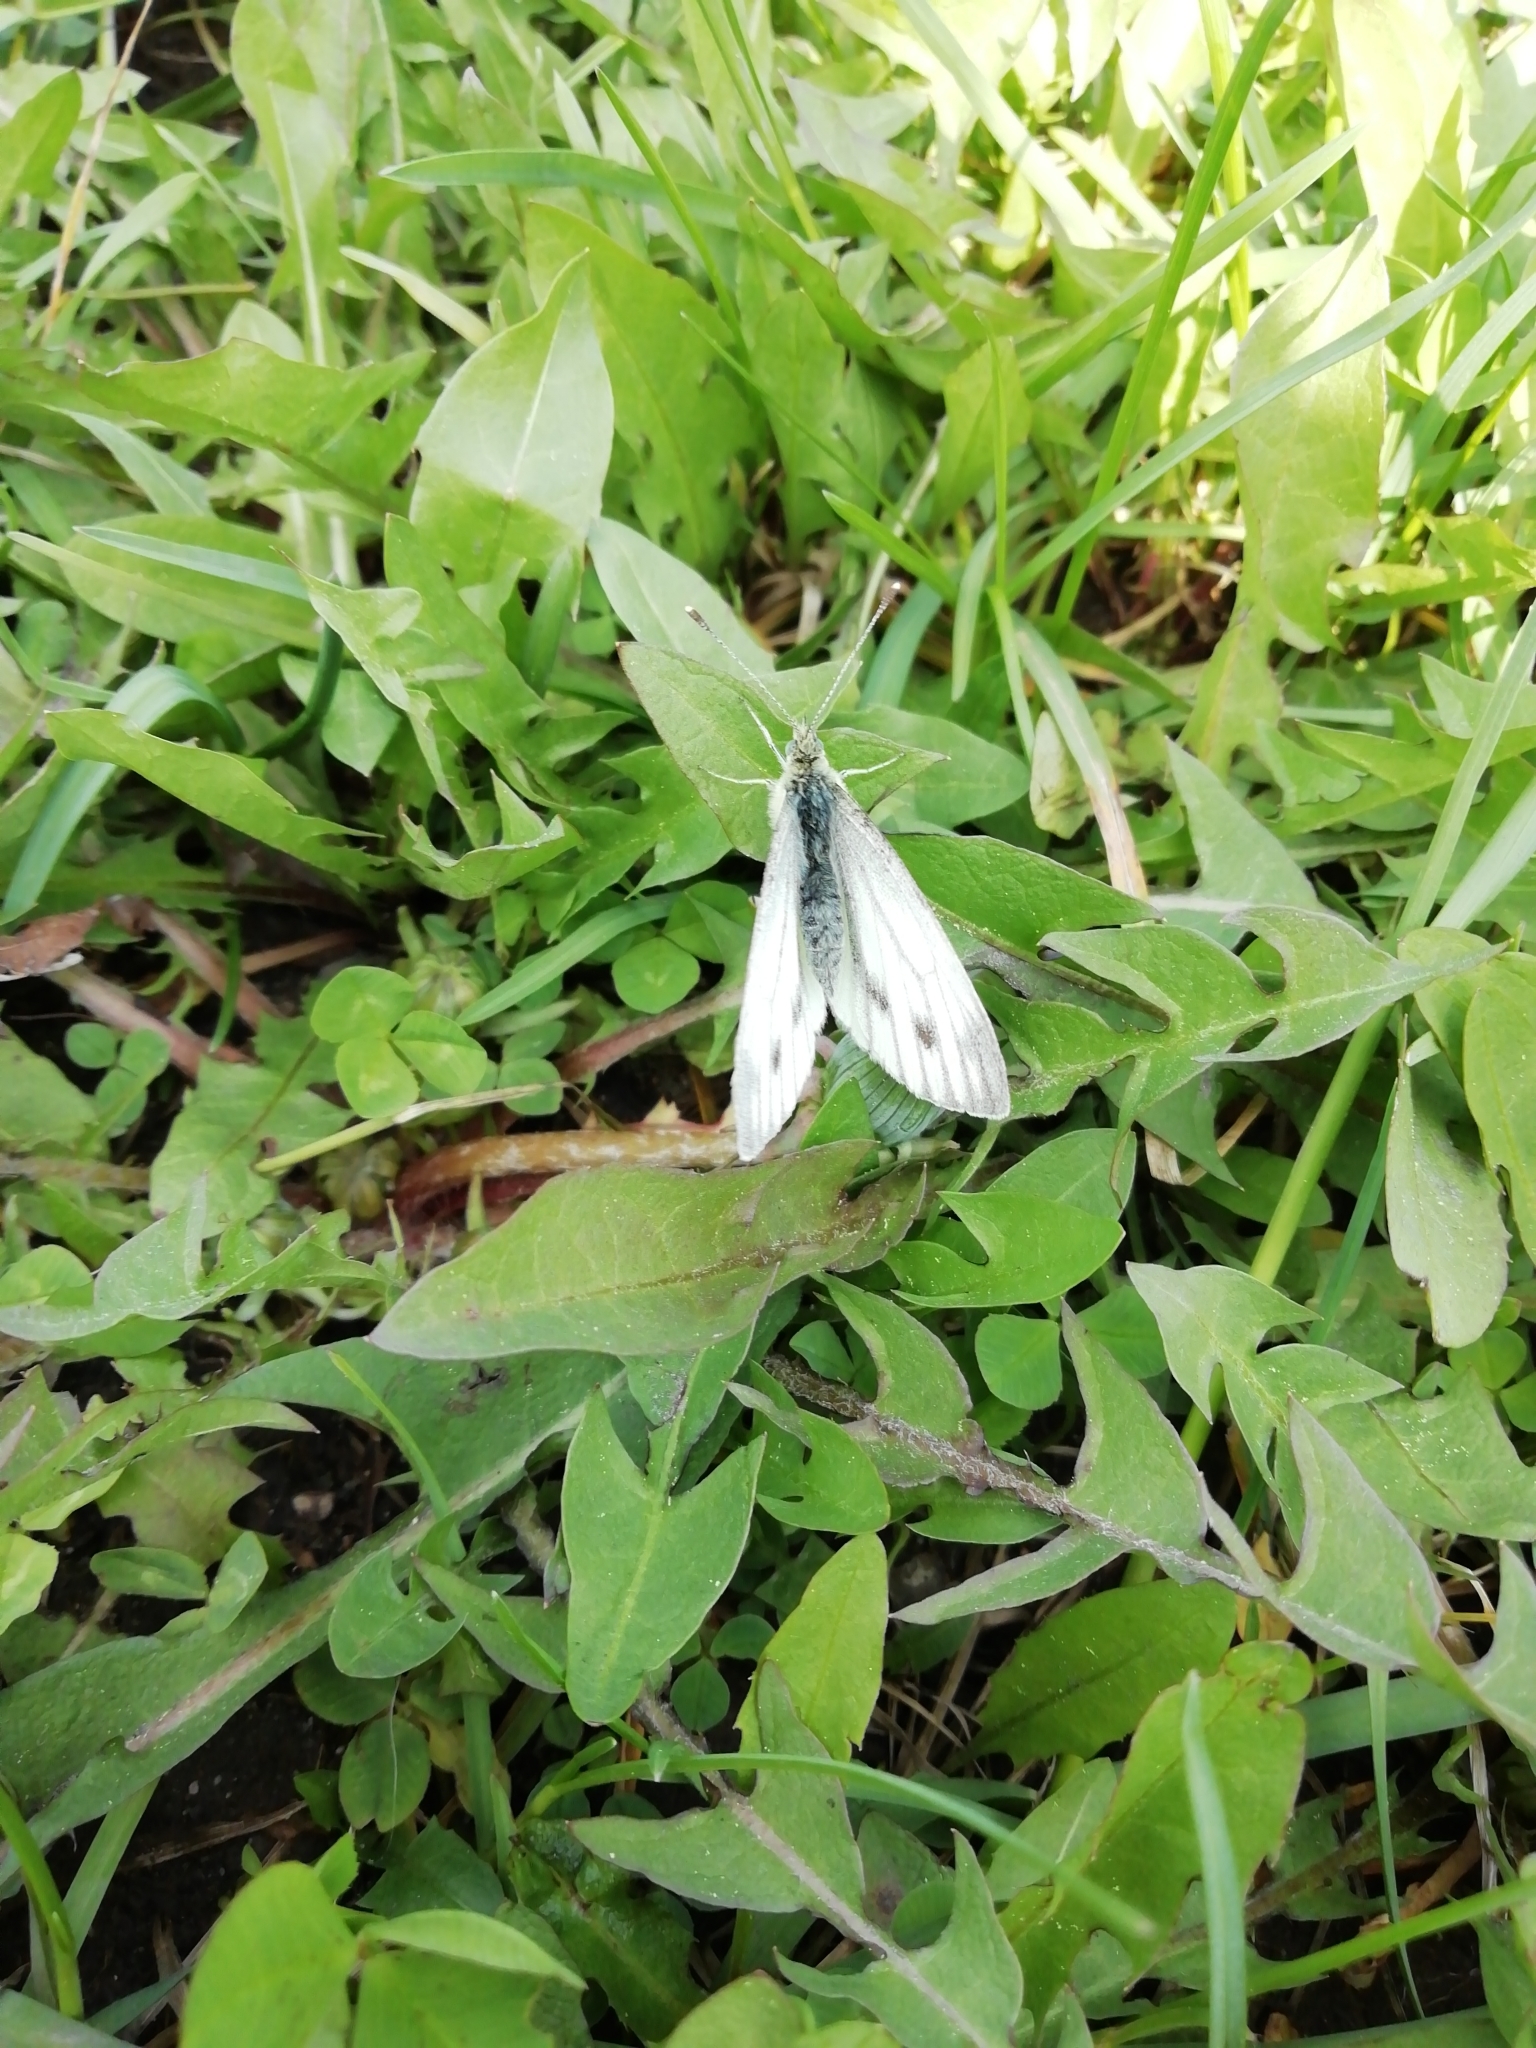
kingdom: Animalia
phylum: Arthropoda
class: Insecta
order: Lepidoptera
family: Pieridae
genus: Pieris
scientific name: Pieris napi
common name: Green-veined white
